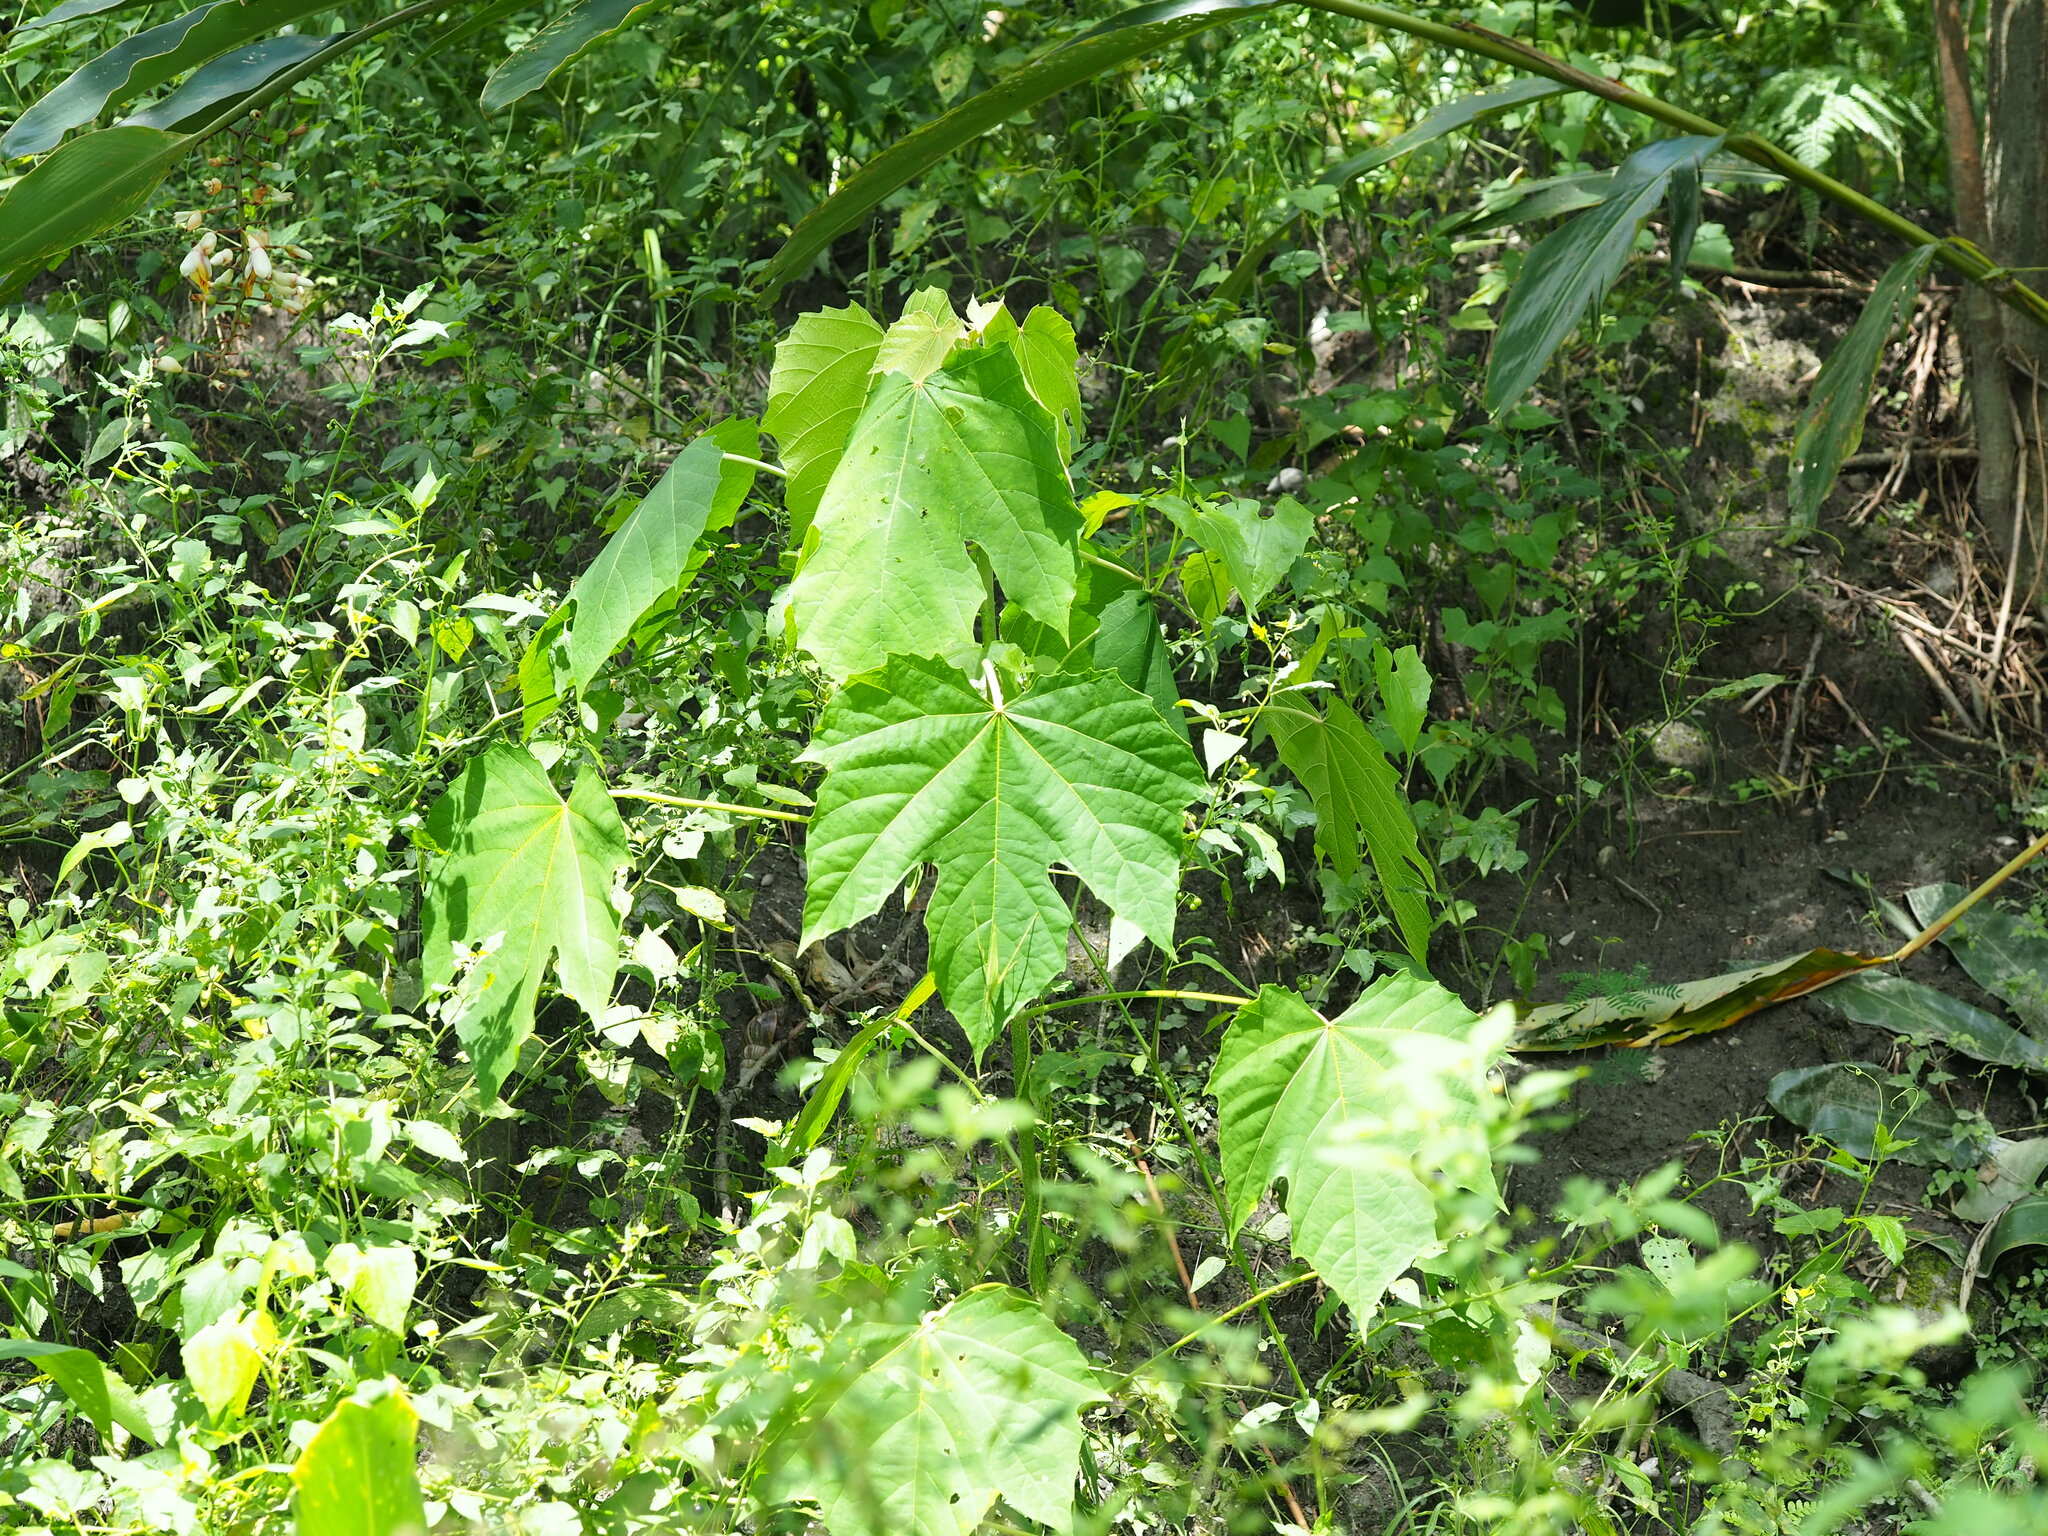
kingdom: Plantae
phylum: Tracheophyta
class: Magnoliopsida
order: Malpighiales
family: Euphorbiaceae
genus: Melanolepis
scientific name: Melanolepis multiglandulosa
